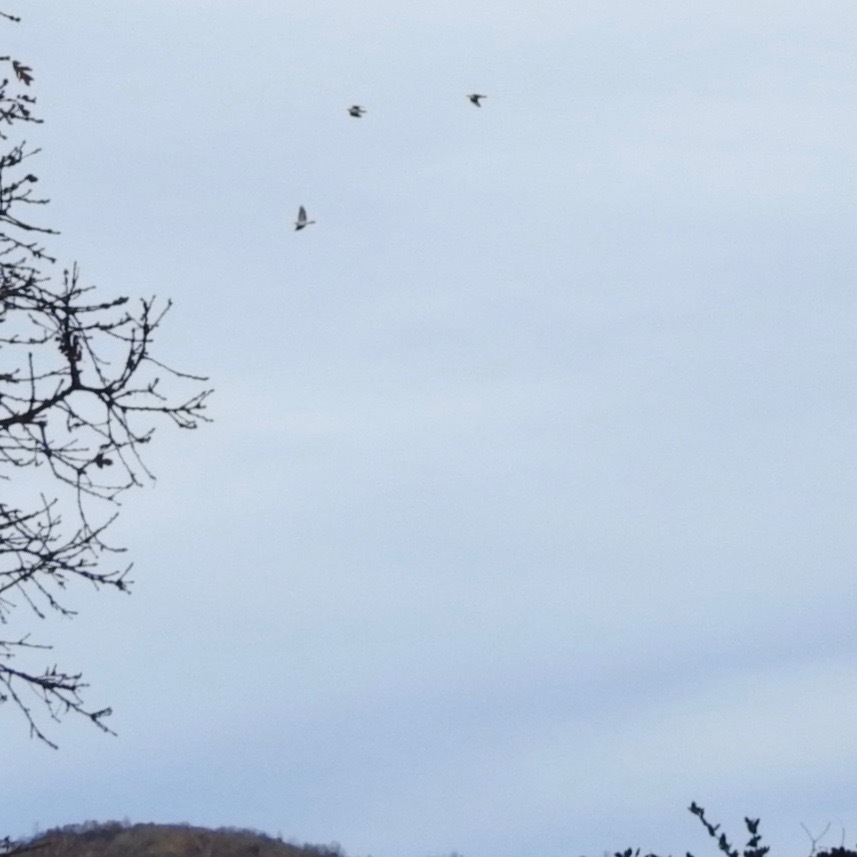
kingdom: Animalia
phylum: Chordata
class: Aves
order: Columbiformes
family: Columbidae
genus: Patagioenas
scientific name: Patagioenas fasciata
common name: Band-tailed pigeon
